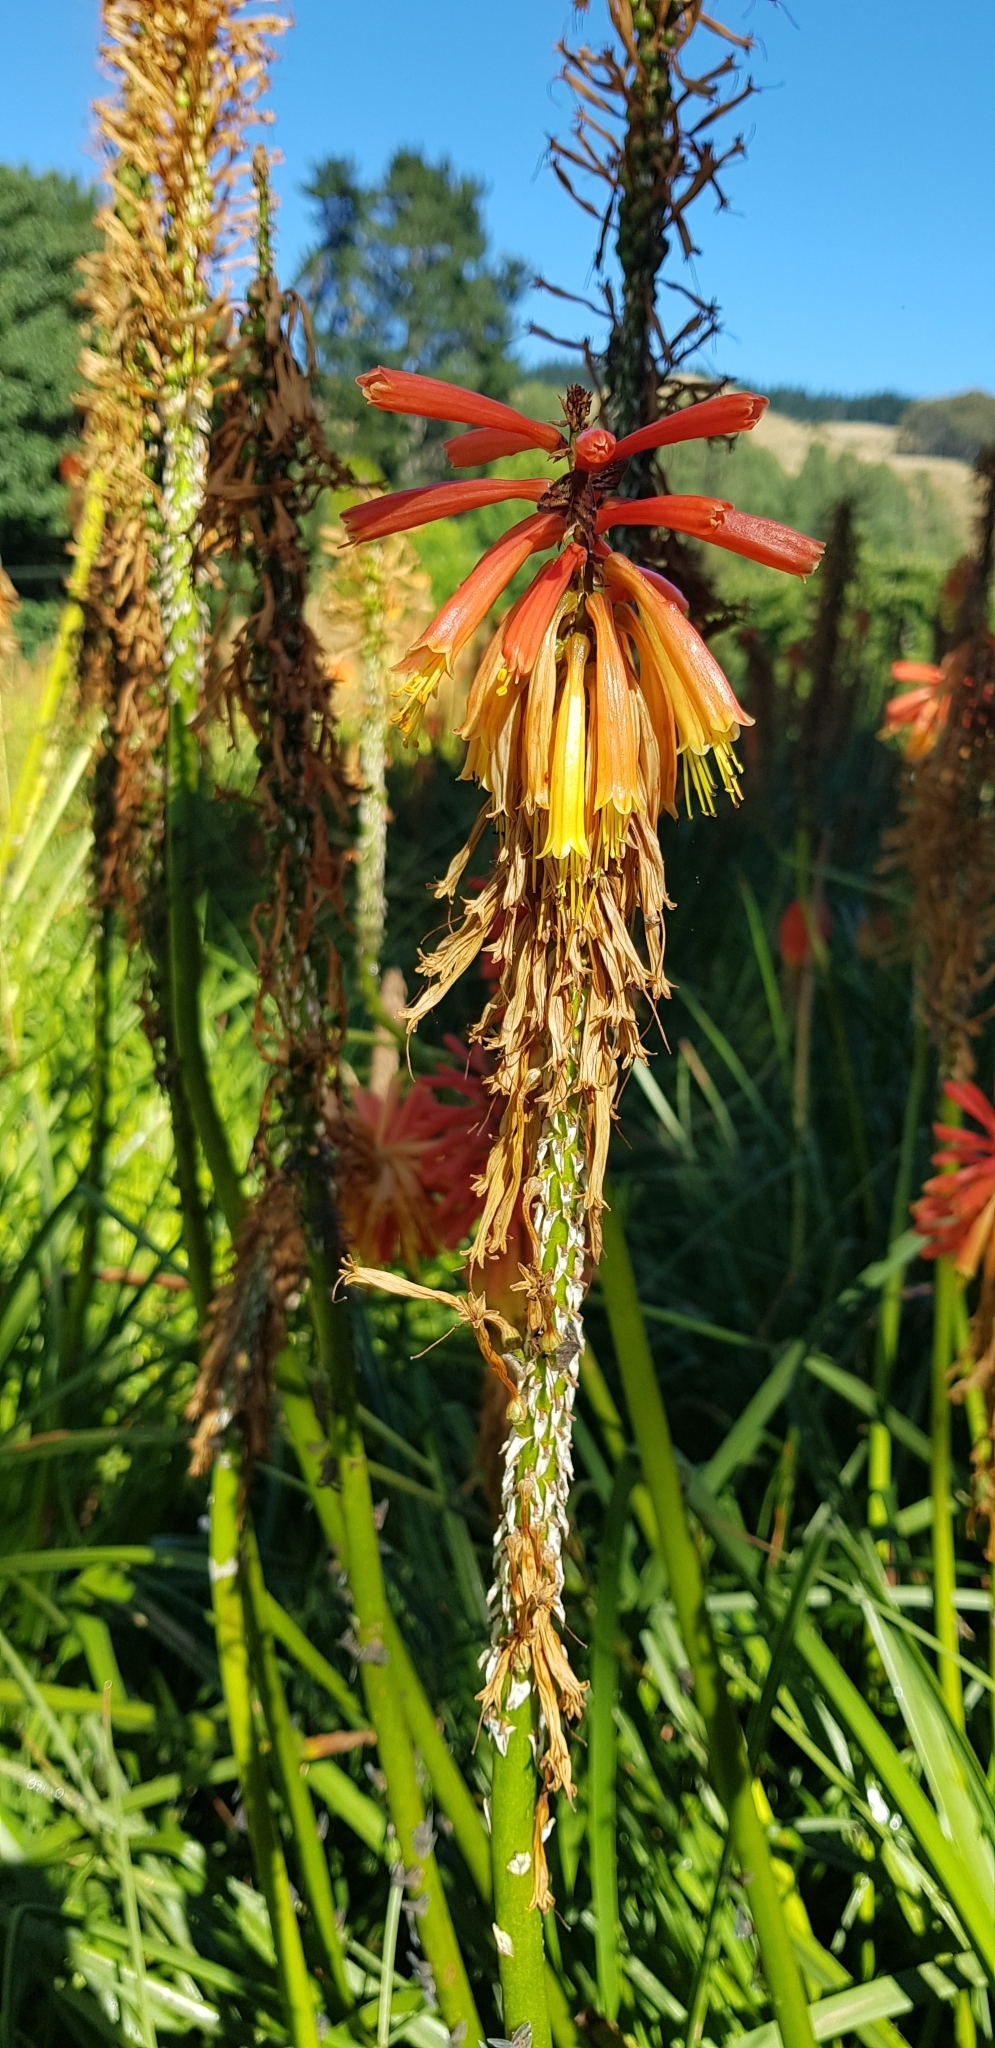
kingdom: Animalia
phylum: Arthropoda
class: Insecta
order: Hemiptera
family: Ricaniidae
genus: Scolypopa
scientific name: Scolypopa australis
